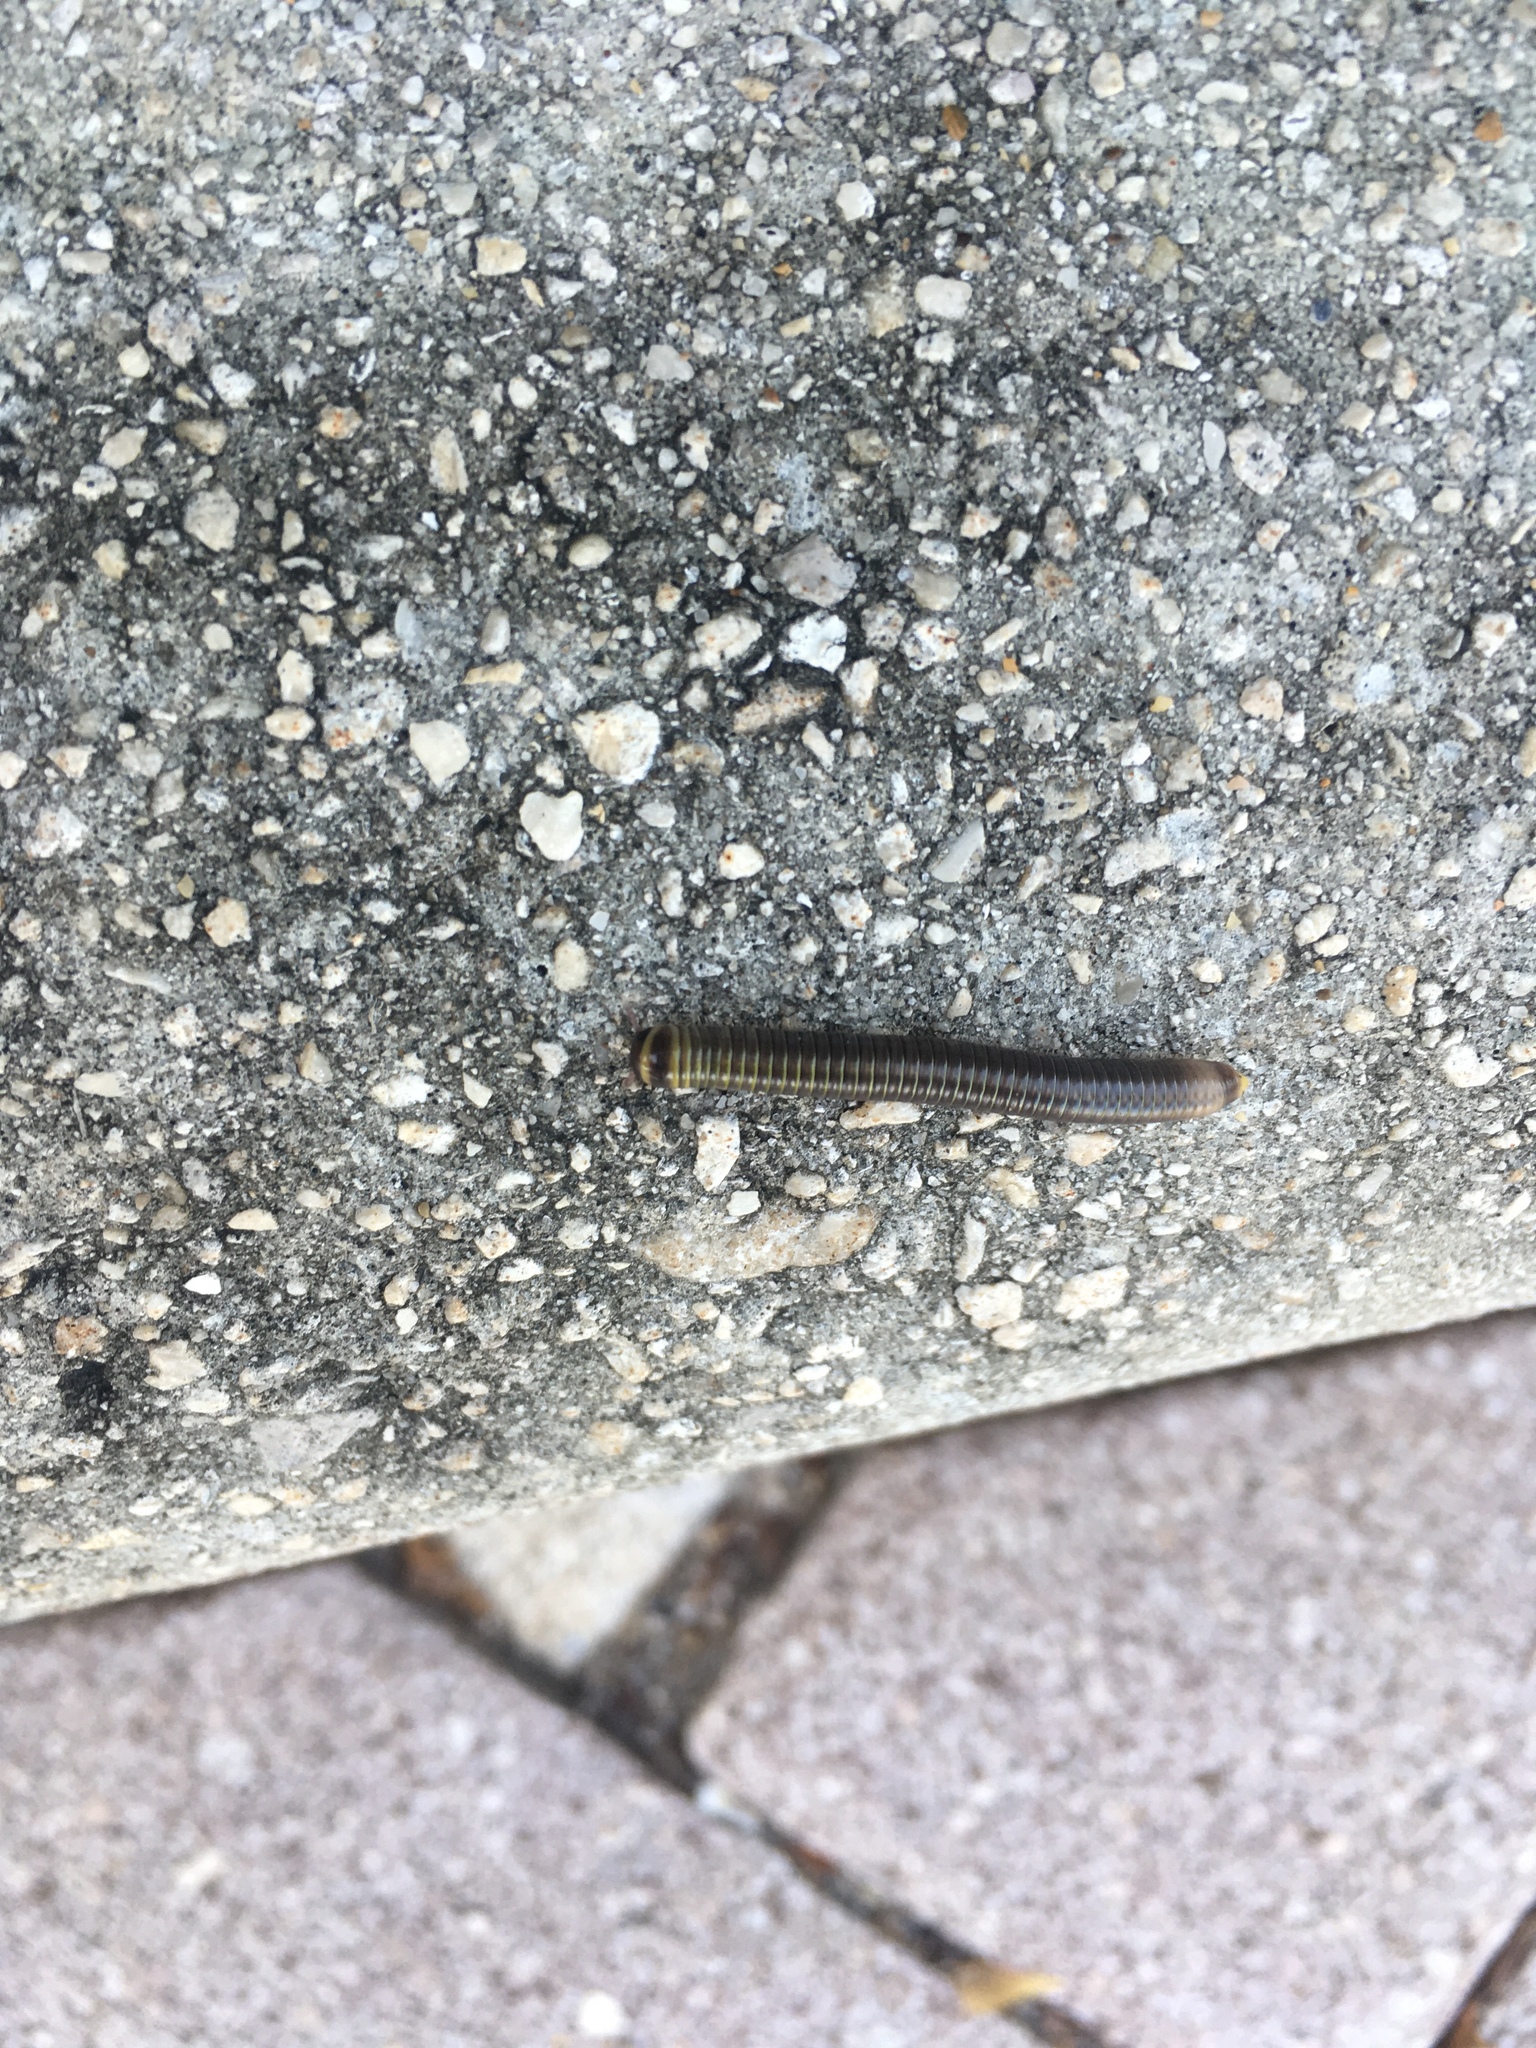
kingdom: Animalia
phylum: Arthropoda
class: Diplopoda
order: Spirobolida
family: Rhinocricidae
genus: Anadenobolus
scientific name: Anadenobolus monilicornis
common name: Caribbean millipede
